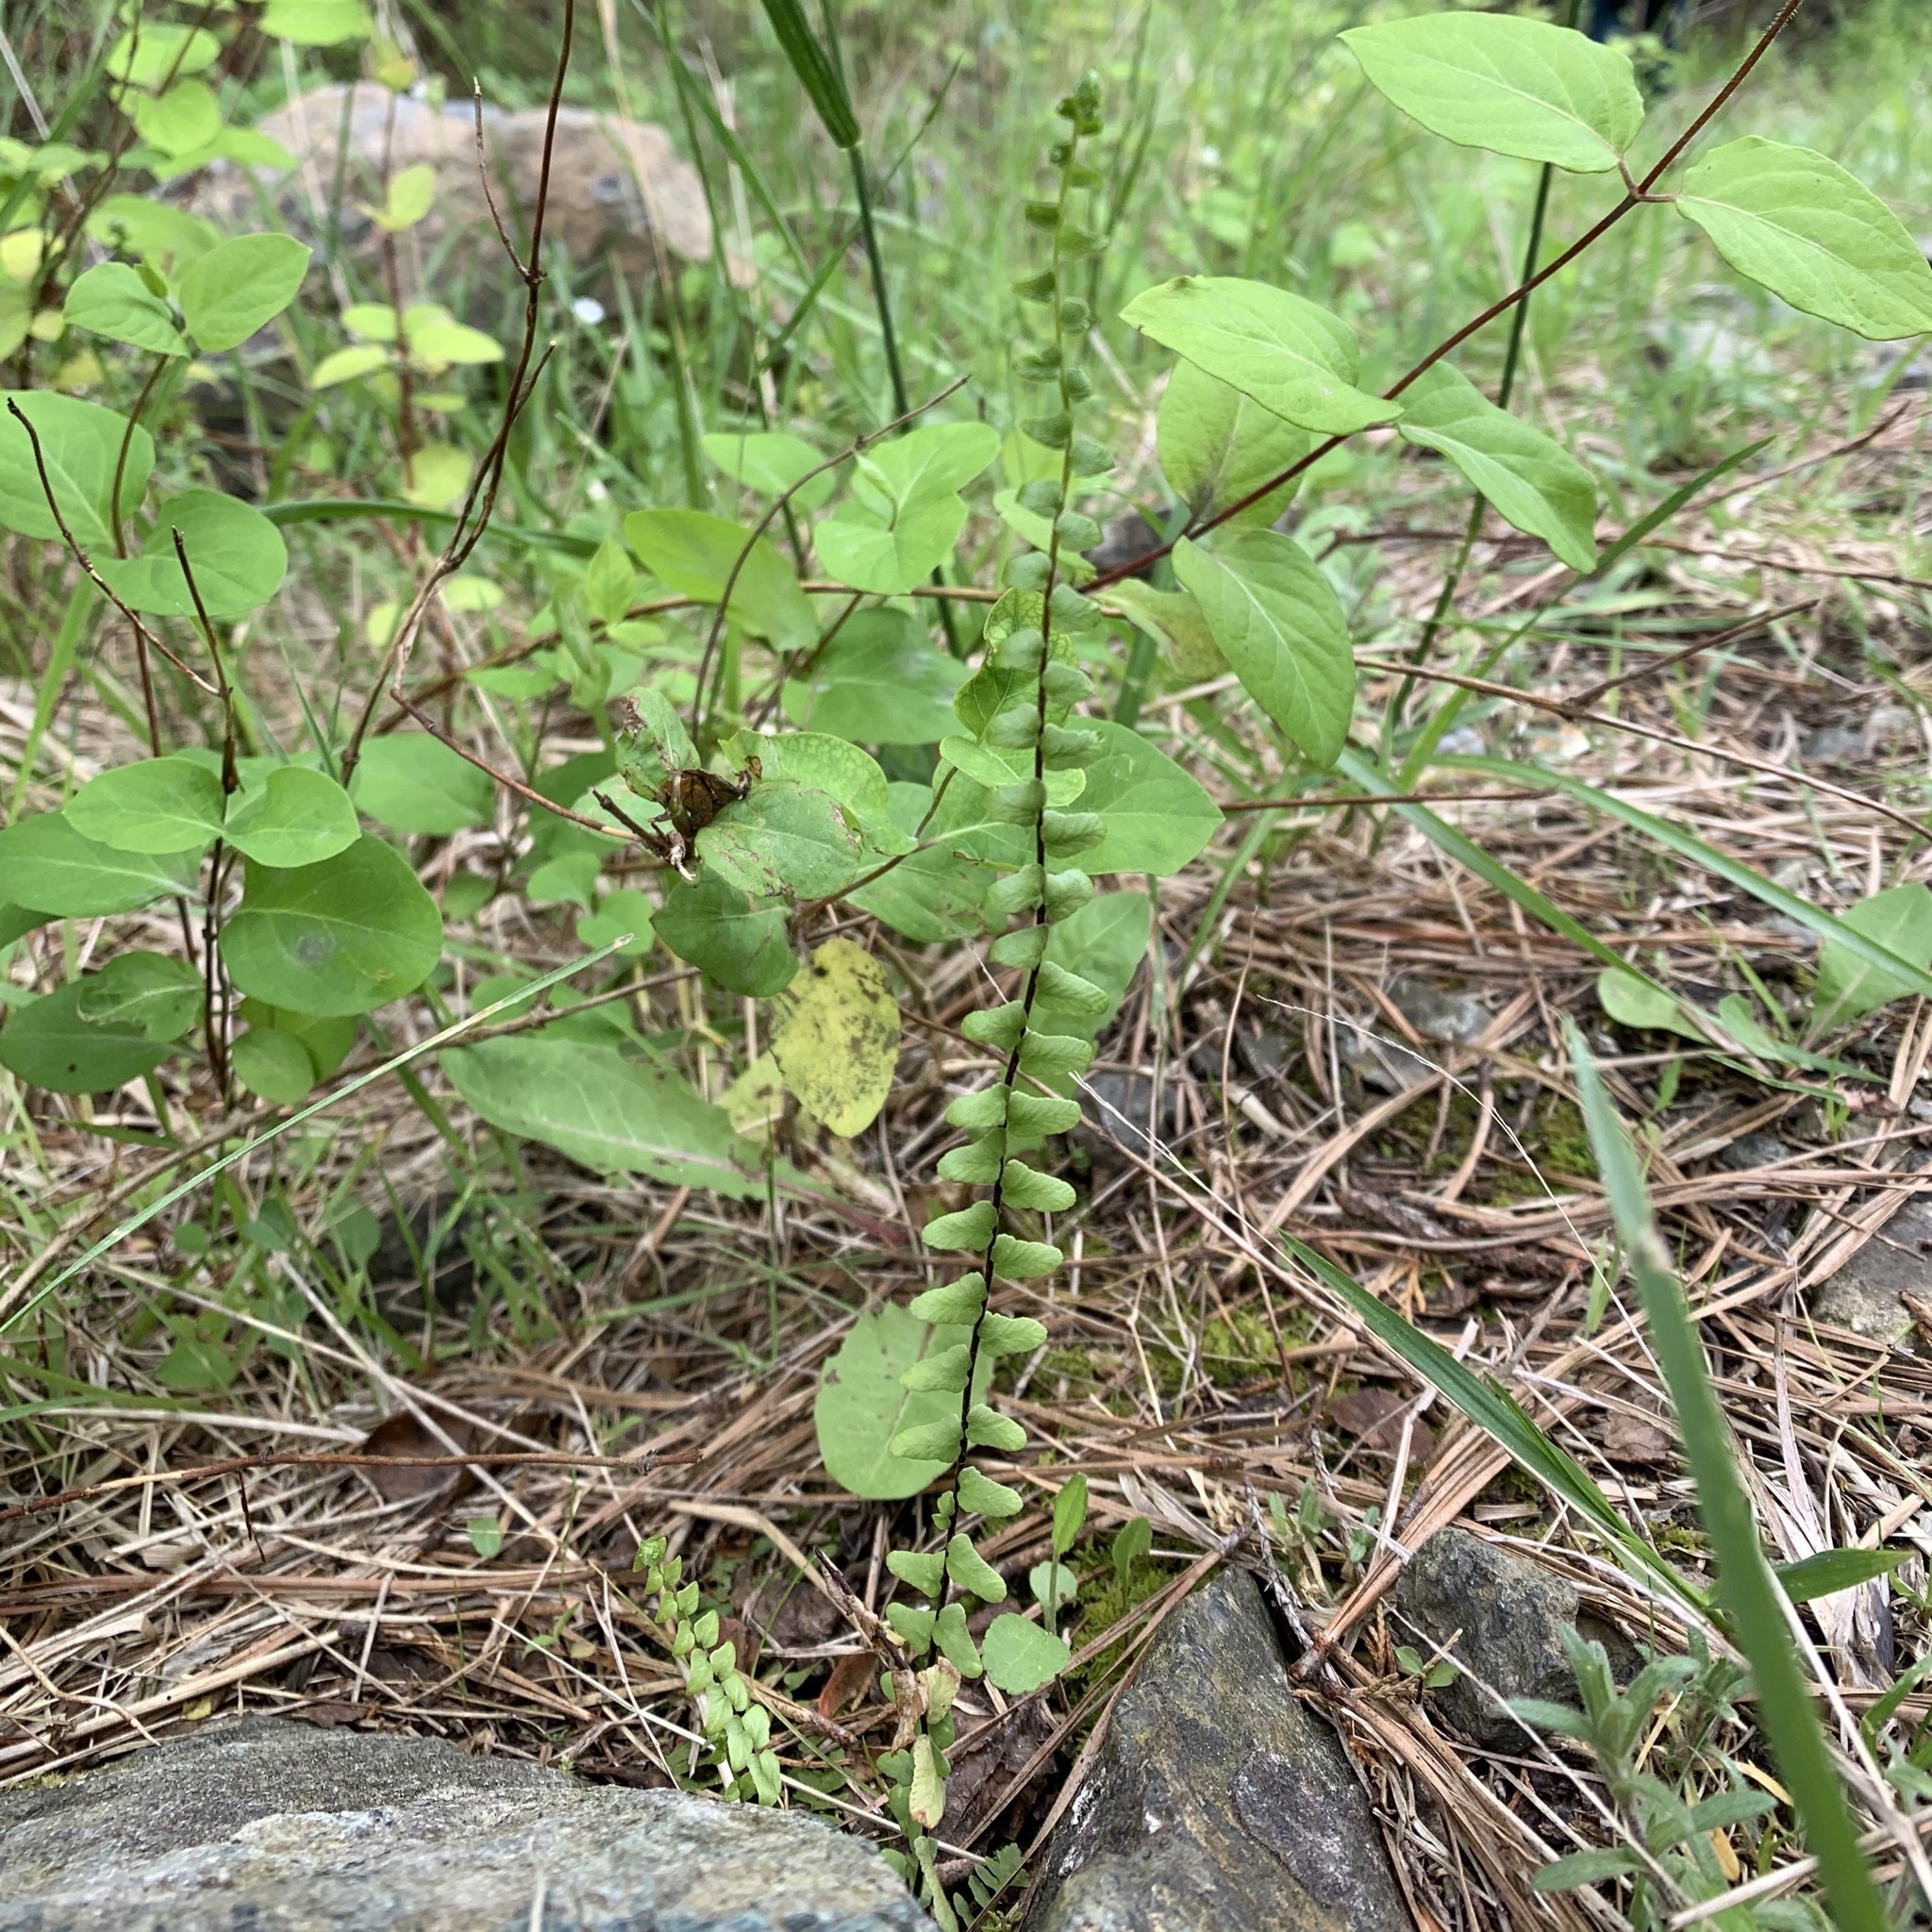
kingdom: Plantae
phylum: Tracheophyta
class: Polypodiopsida
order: Polypodiales
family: Aspleniaceae
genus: Asplenium
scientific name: Asplenium platyneuron
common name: Ebony spleenwort
